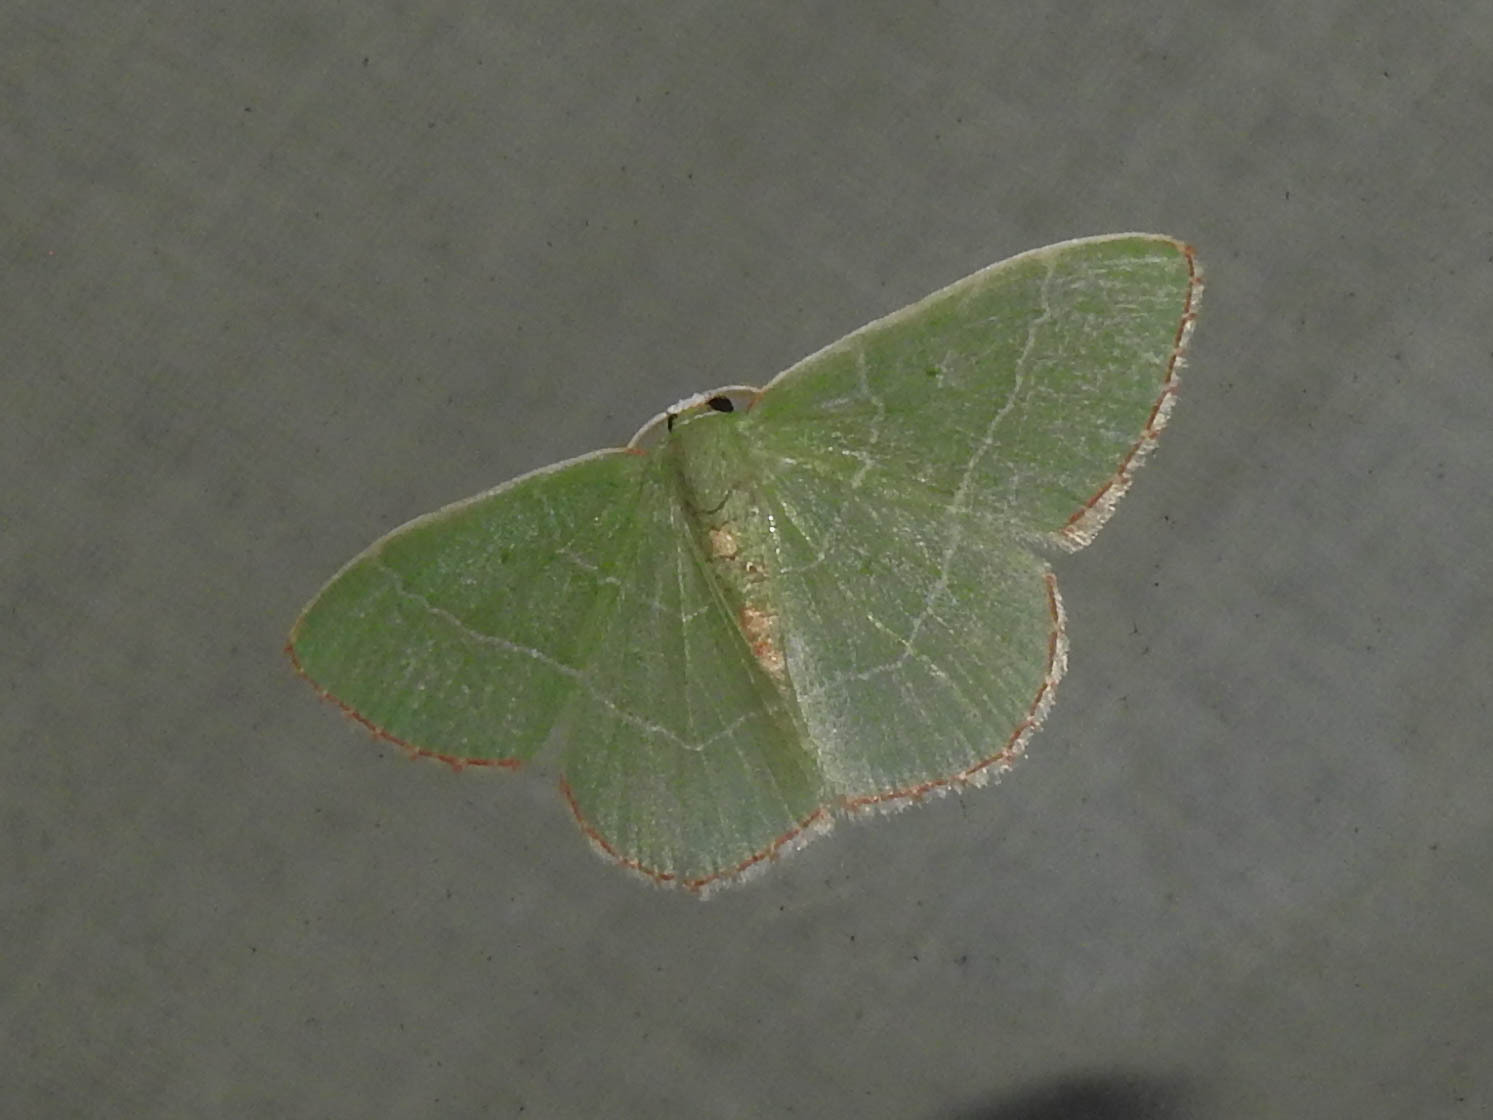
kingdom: Animalia
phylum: Arthropoda
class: Insecta
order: Lepidoptera
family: Geometridae
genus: Nemoria
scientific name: Nemoria bistriaria
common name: Red-fringed emerald
